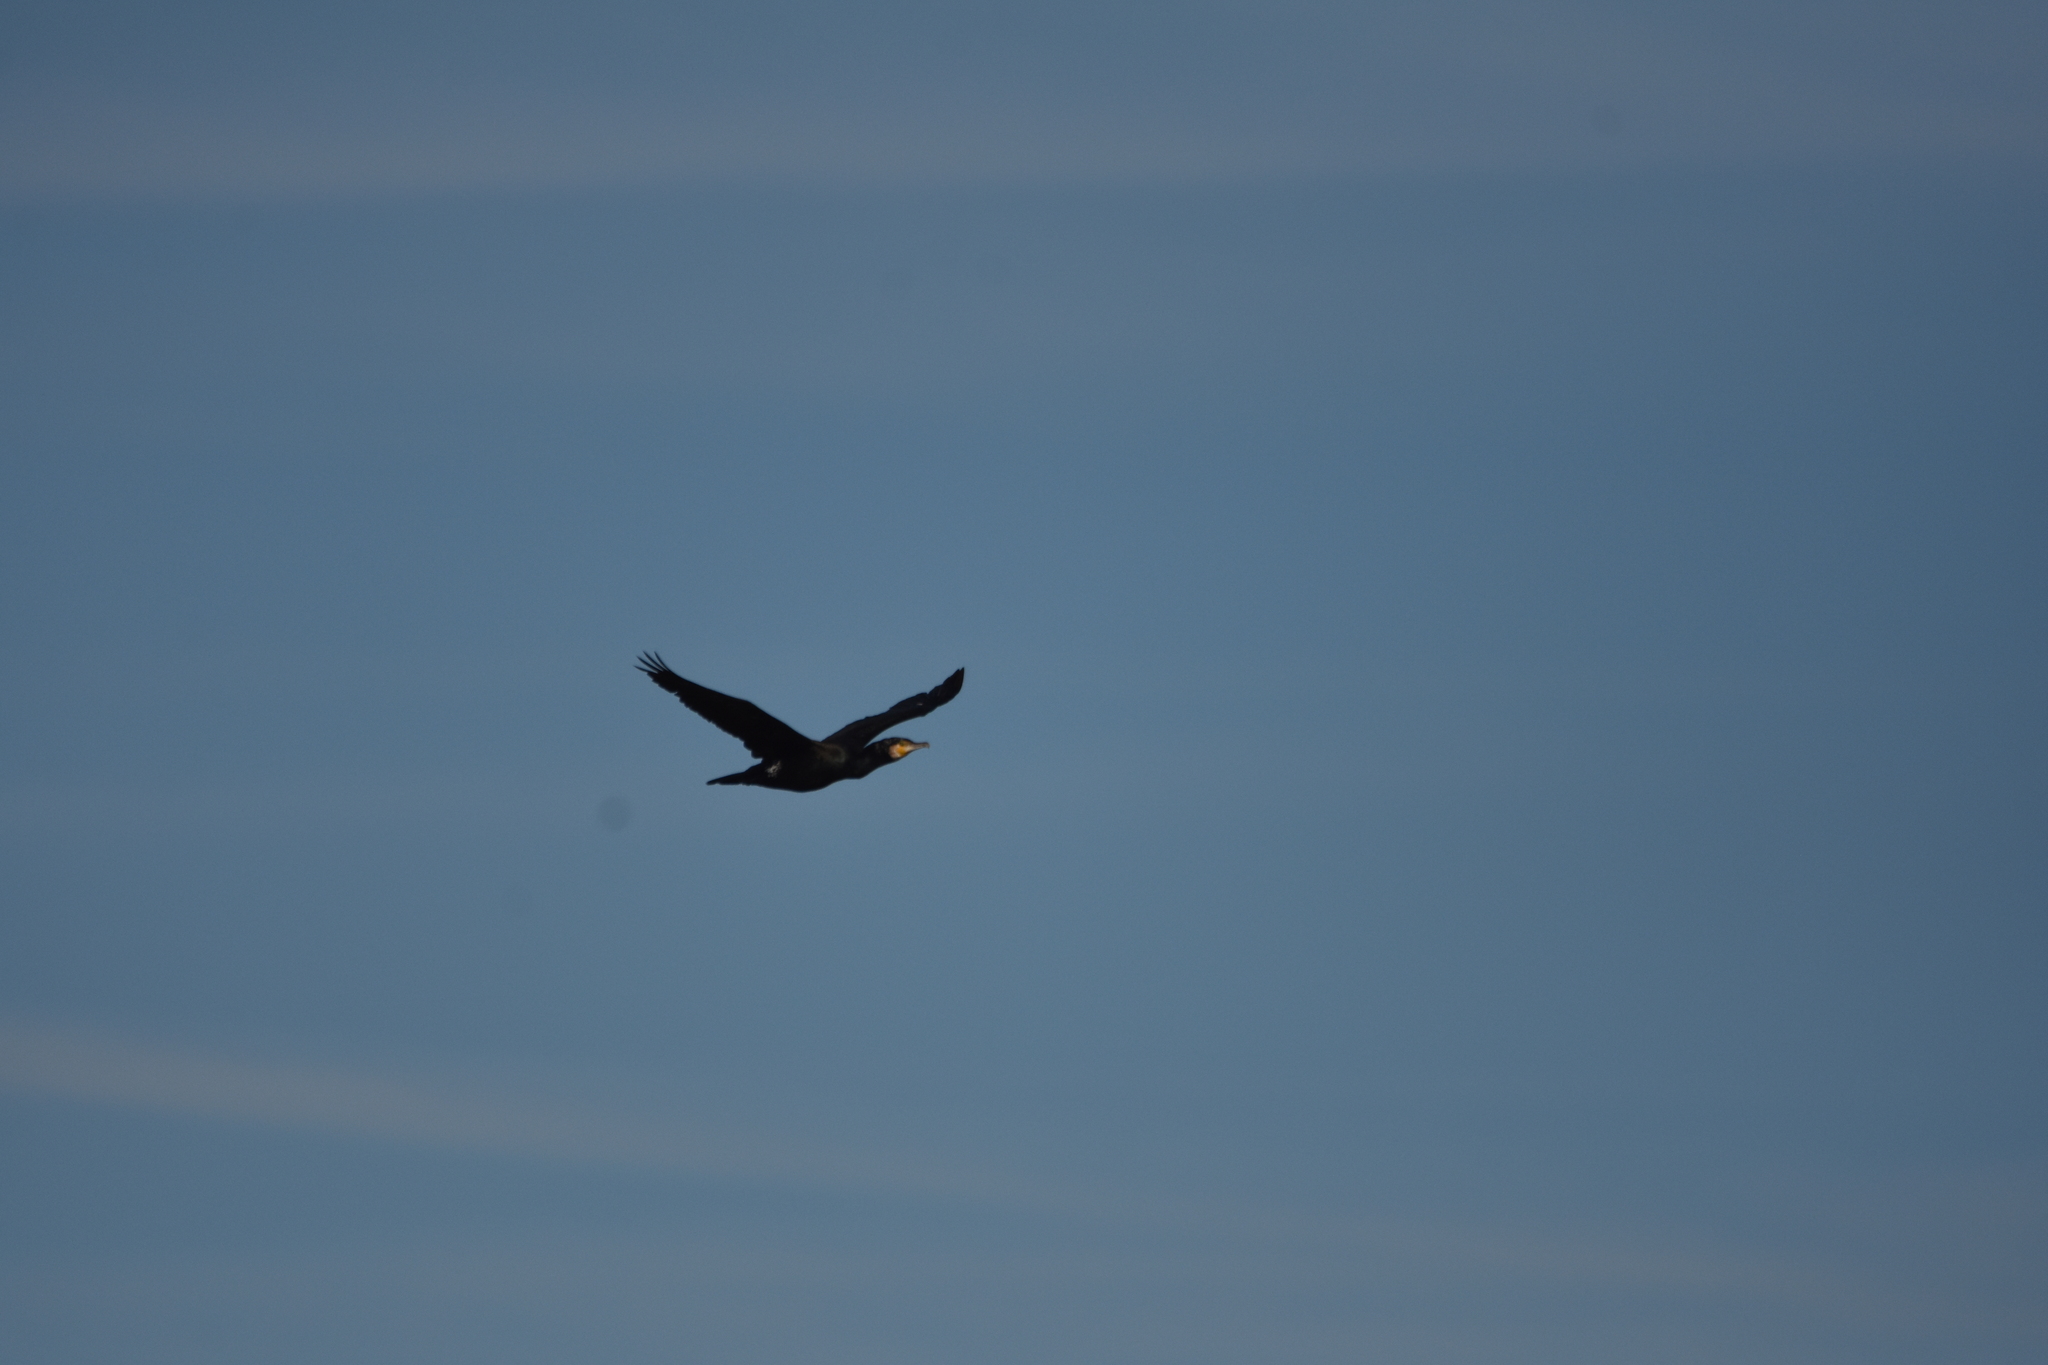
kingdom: Animalia
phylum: Chordata
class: Aves
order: Suliformes
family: Phalacrocoracidae
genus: Phalacrocorax
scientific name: Phalacrocorax carbo
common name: Great cormorant
